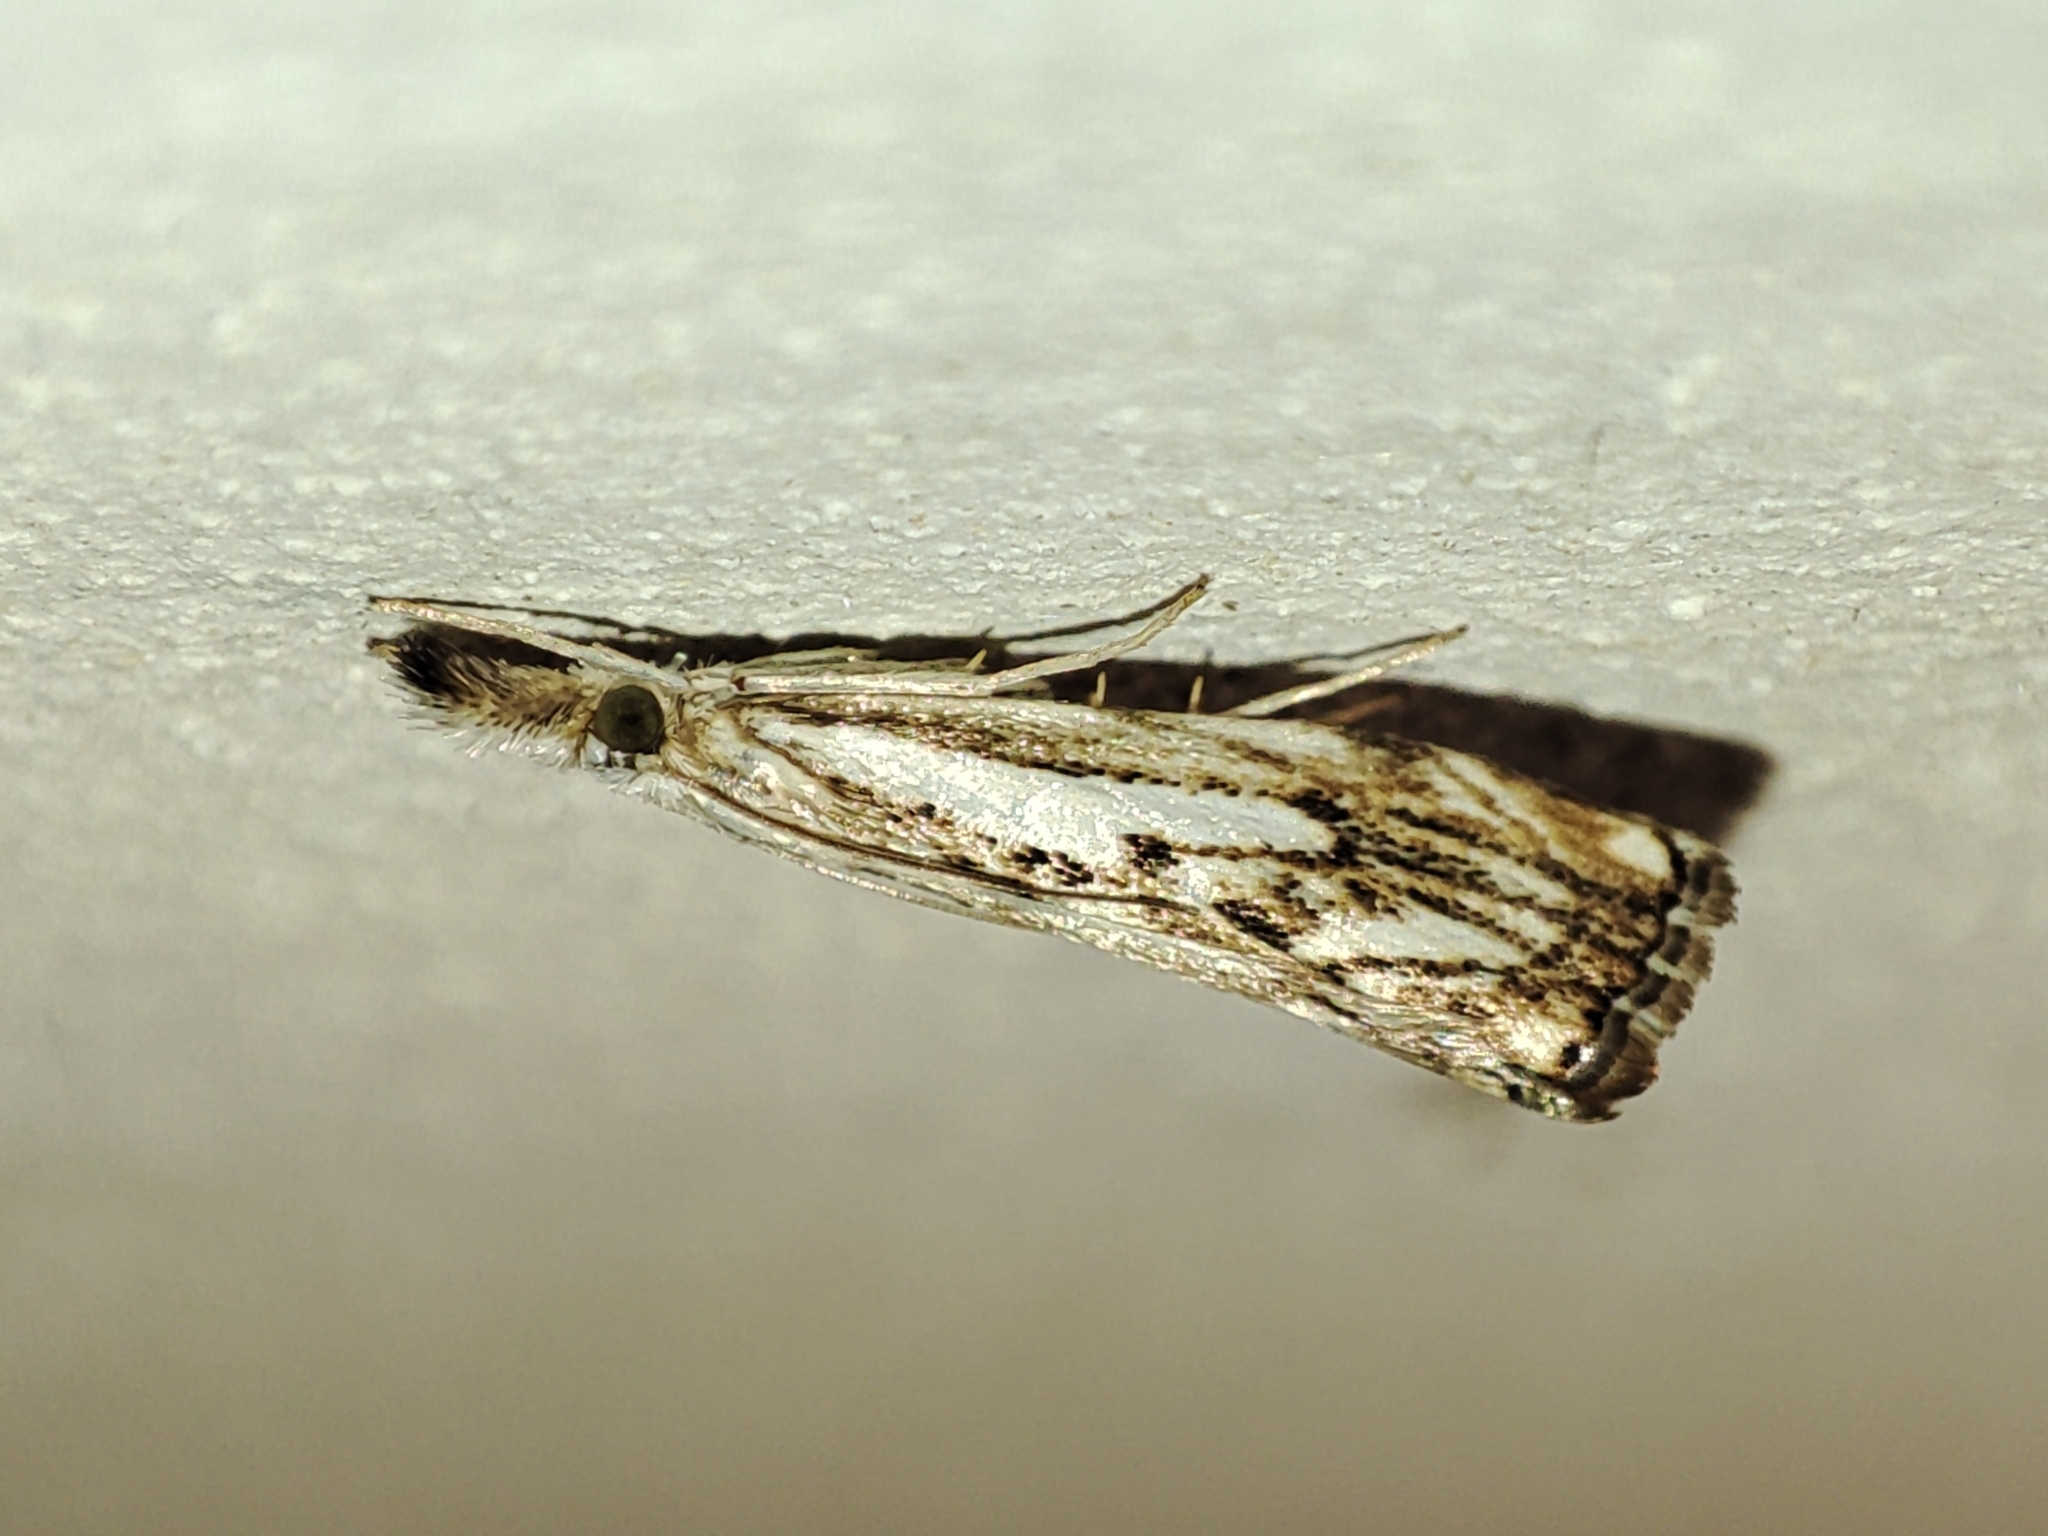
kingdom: Animalia
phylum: Arthropoda
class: Insecta
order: Lepidoptera
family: Crambidae
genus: Catoptria
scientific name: Catoptria falsella
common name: Chequered grass-veneer
